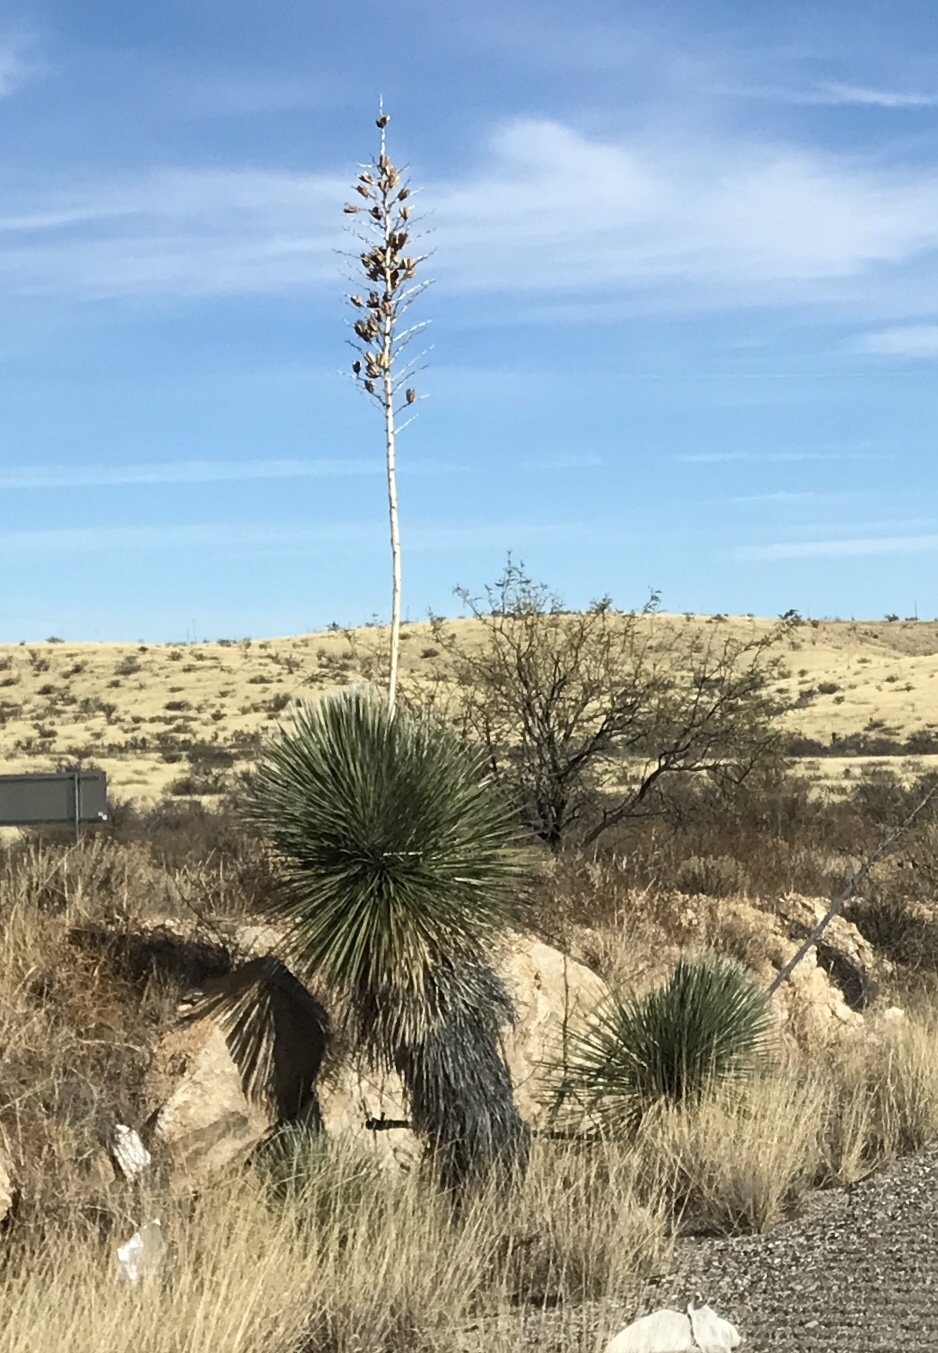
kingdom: Plantae
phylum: Tracheophyta
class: Liliopsida
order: Asparagales
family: Asparagaceae
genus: Yucca
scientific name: Yucca elata
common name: Palmella
